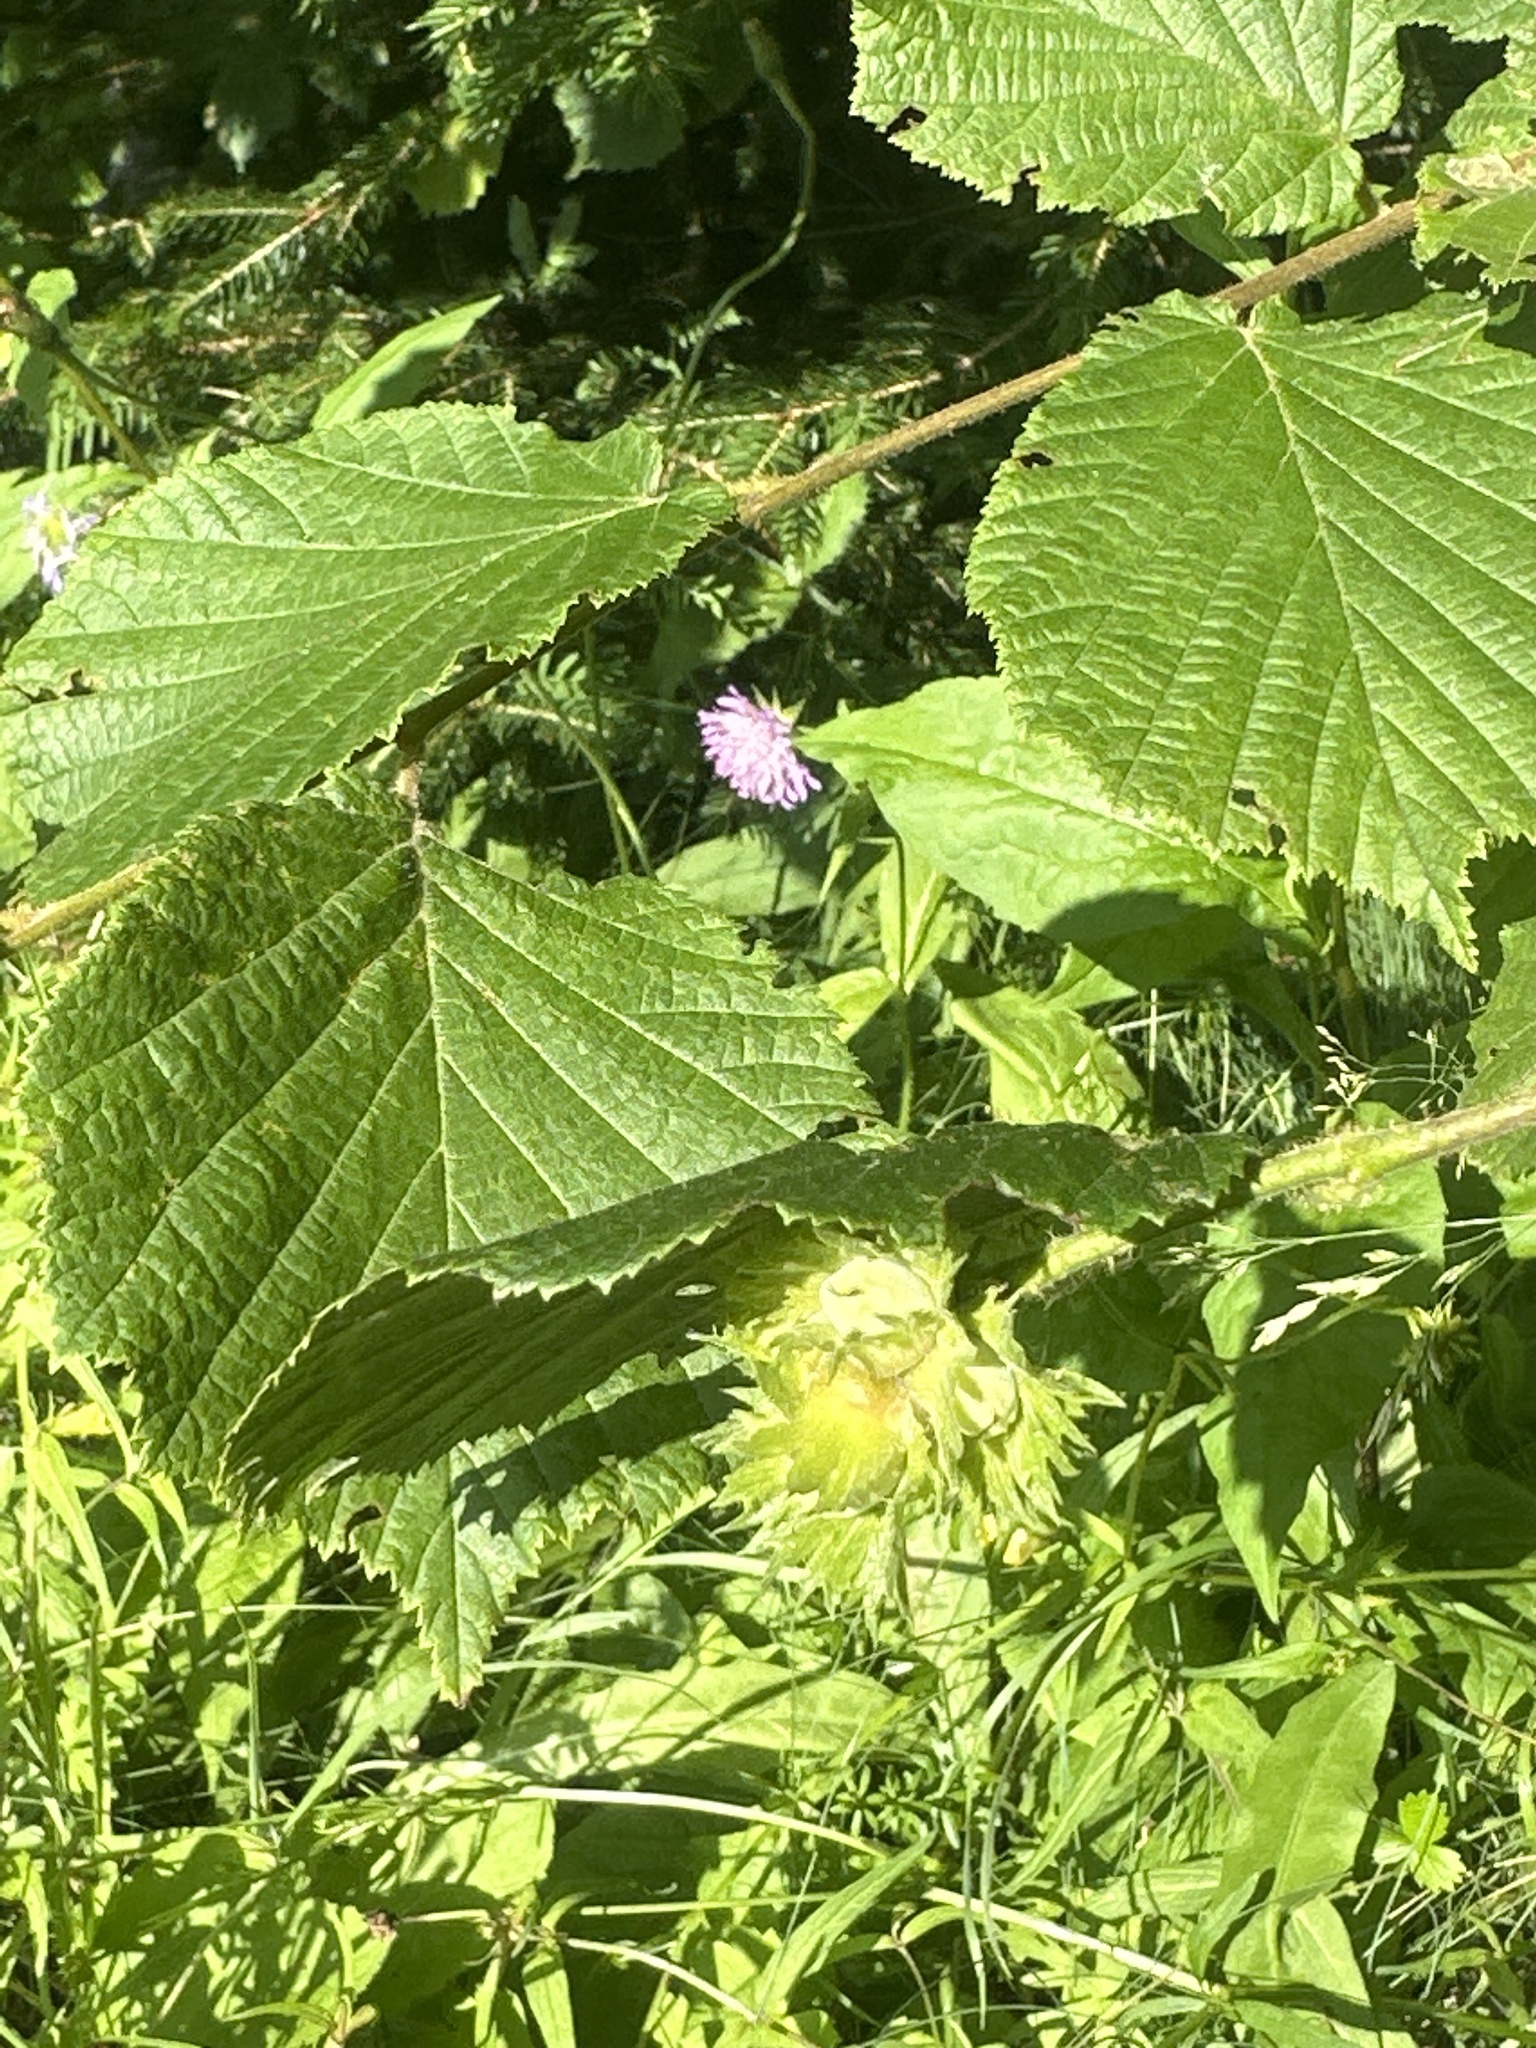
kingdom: Plantae
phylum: Tracheophyta
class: Magnoliopsida
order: Fagales
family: Betulaceae
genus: Corylus
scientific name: Corylus avellana
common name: European hazel
